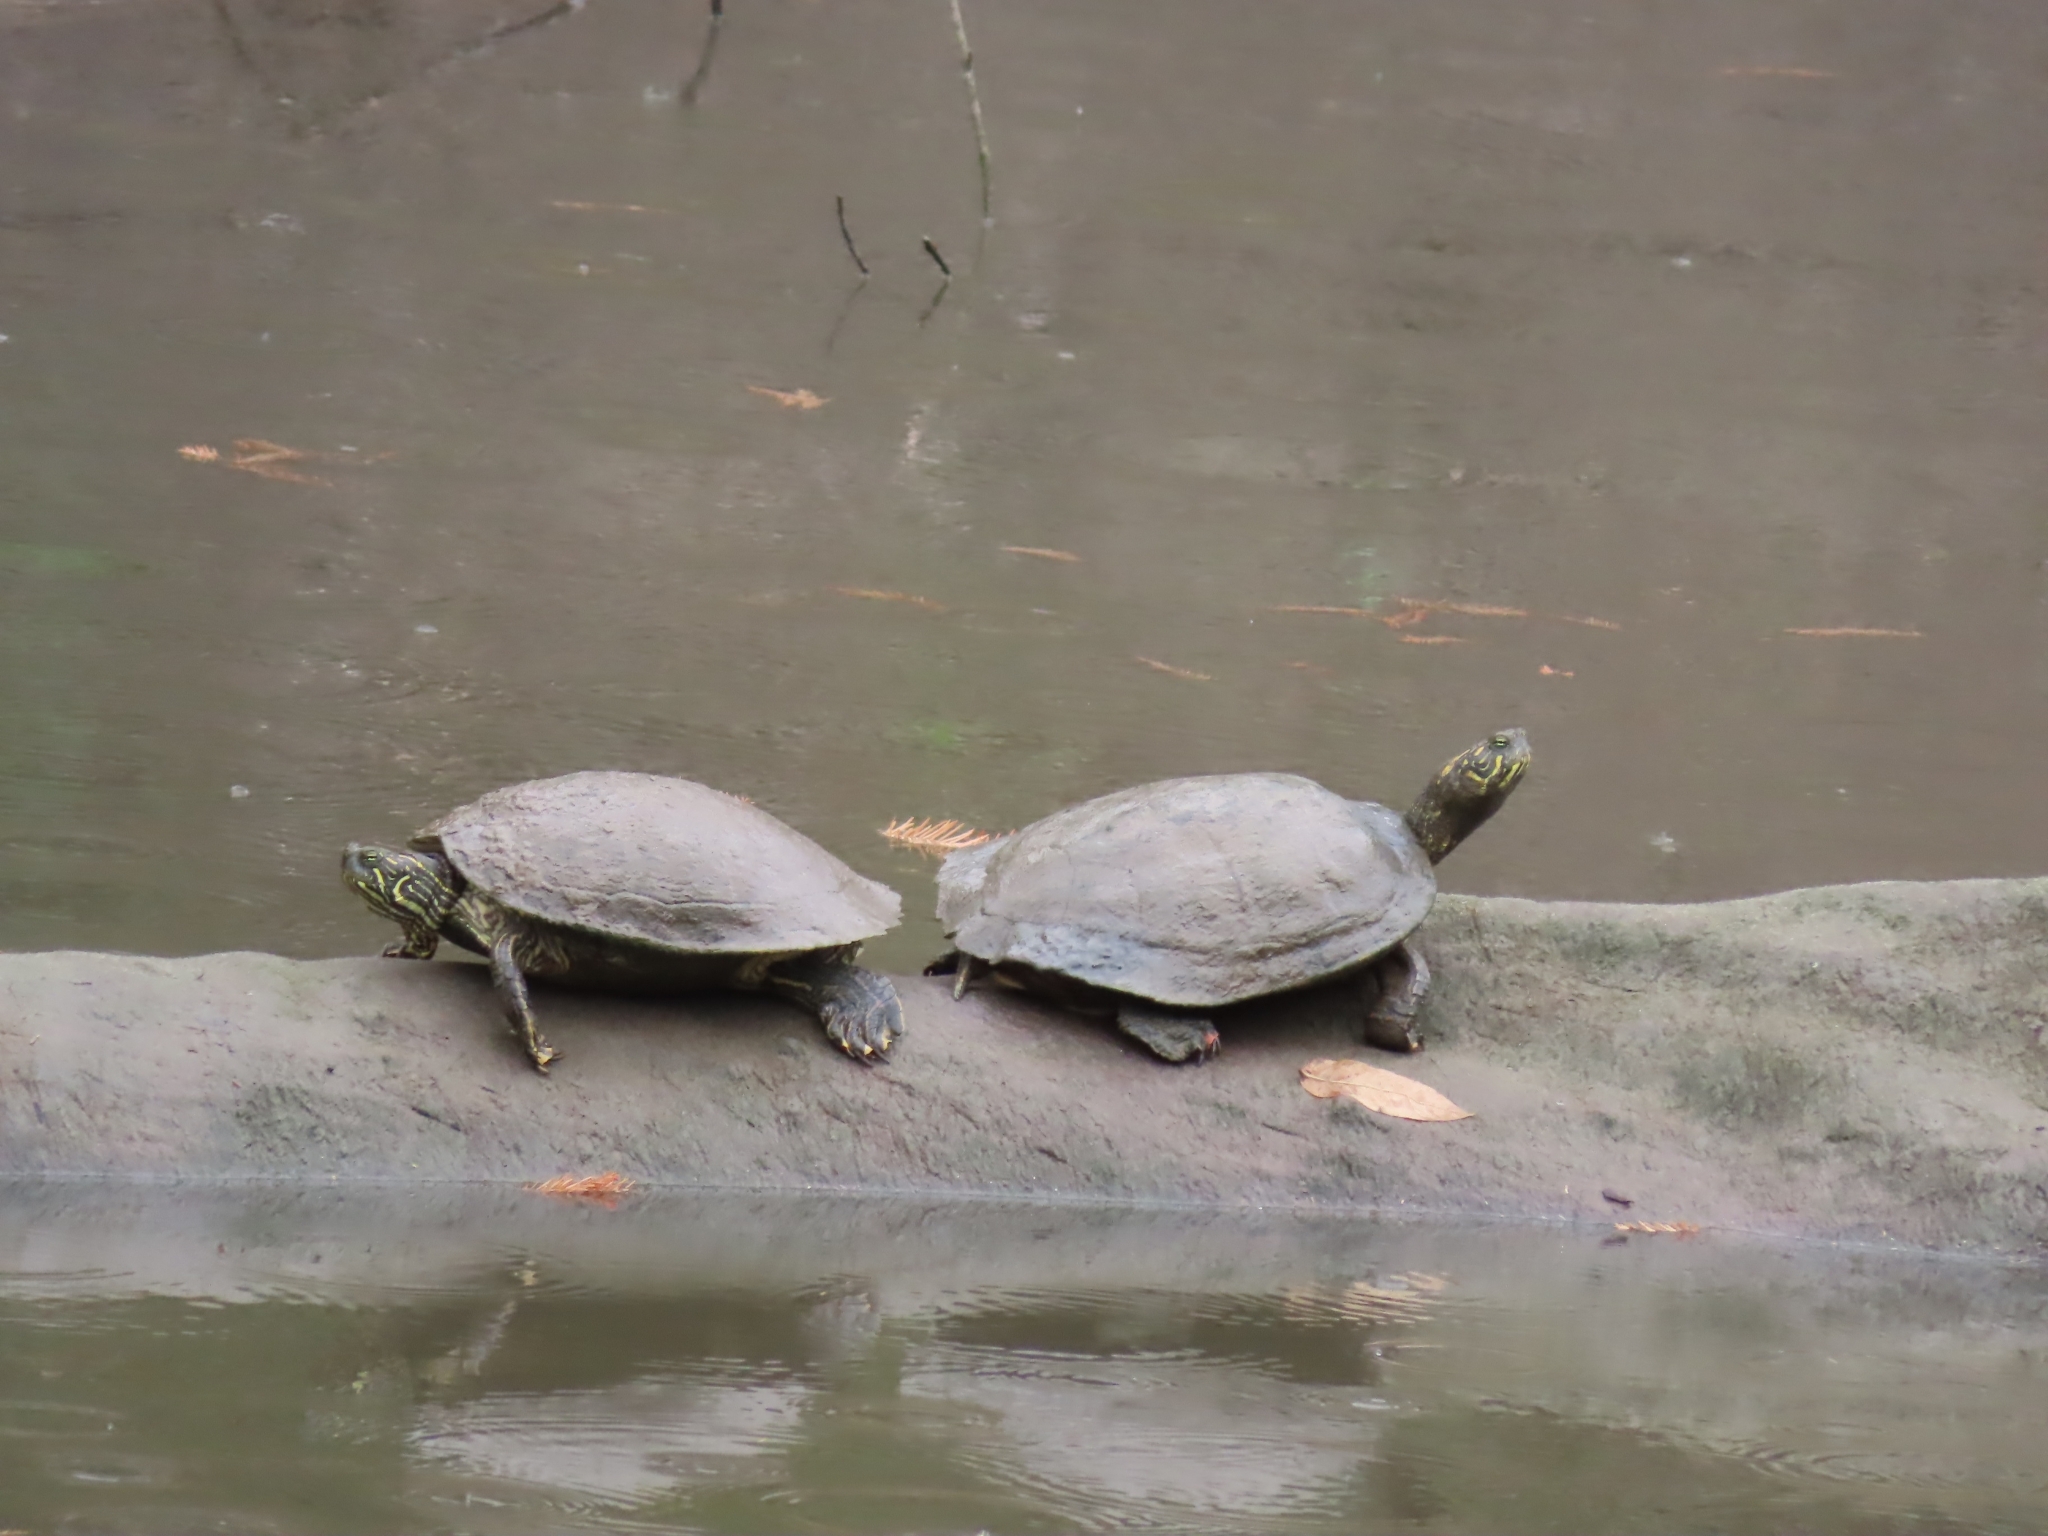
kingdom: Animalia
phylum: Chordata
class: Testudines
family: Emydidae
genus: Pseudemys
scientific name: Pseudemys texana
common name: Texas river cooter
